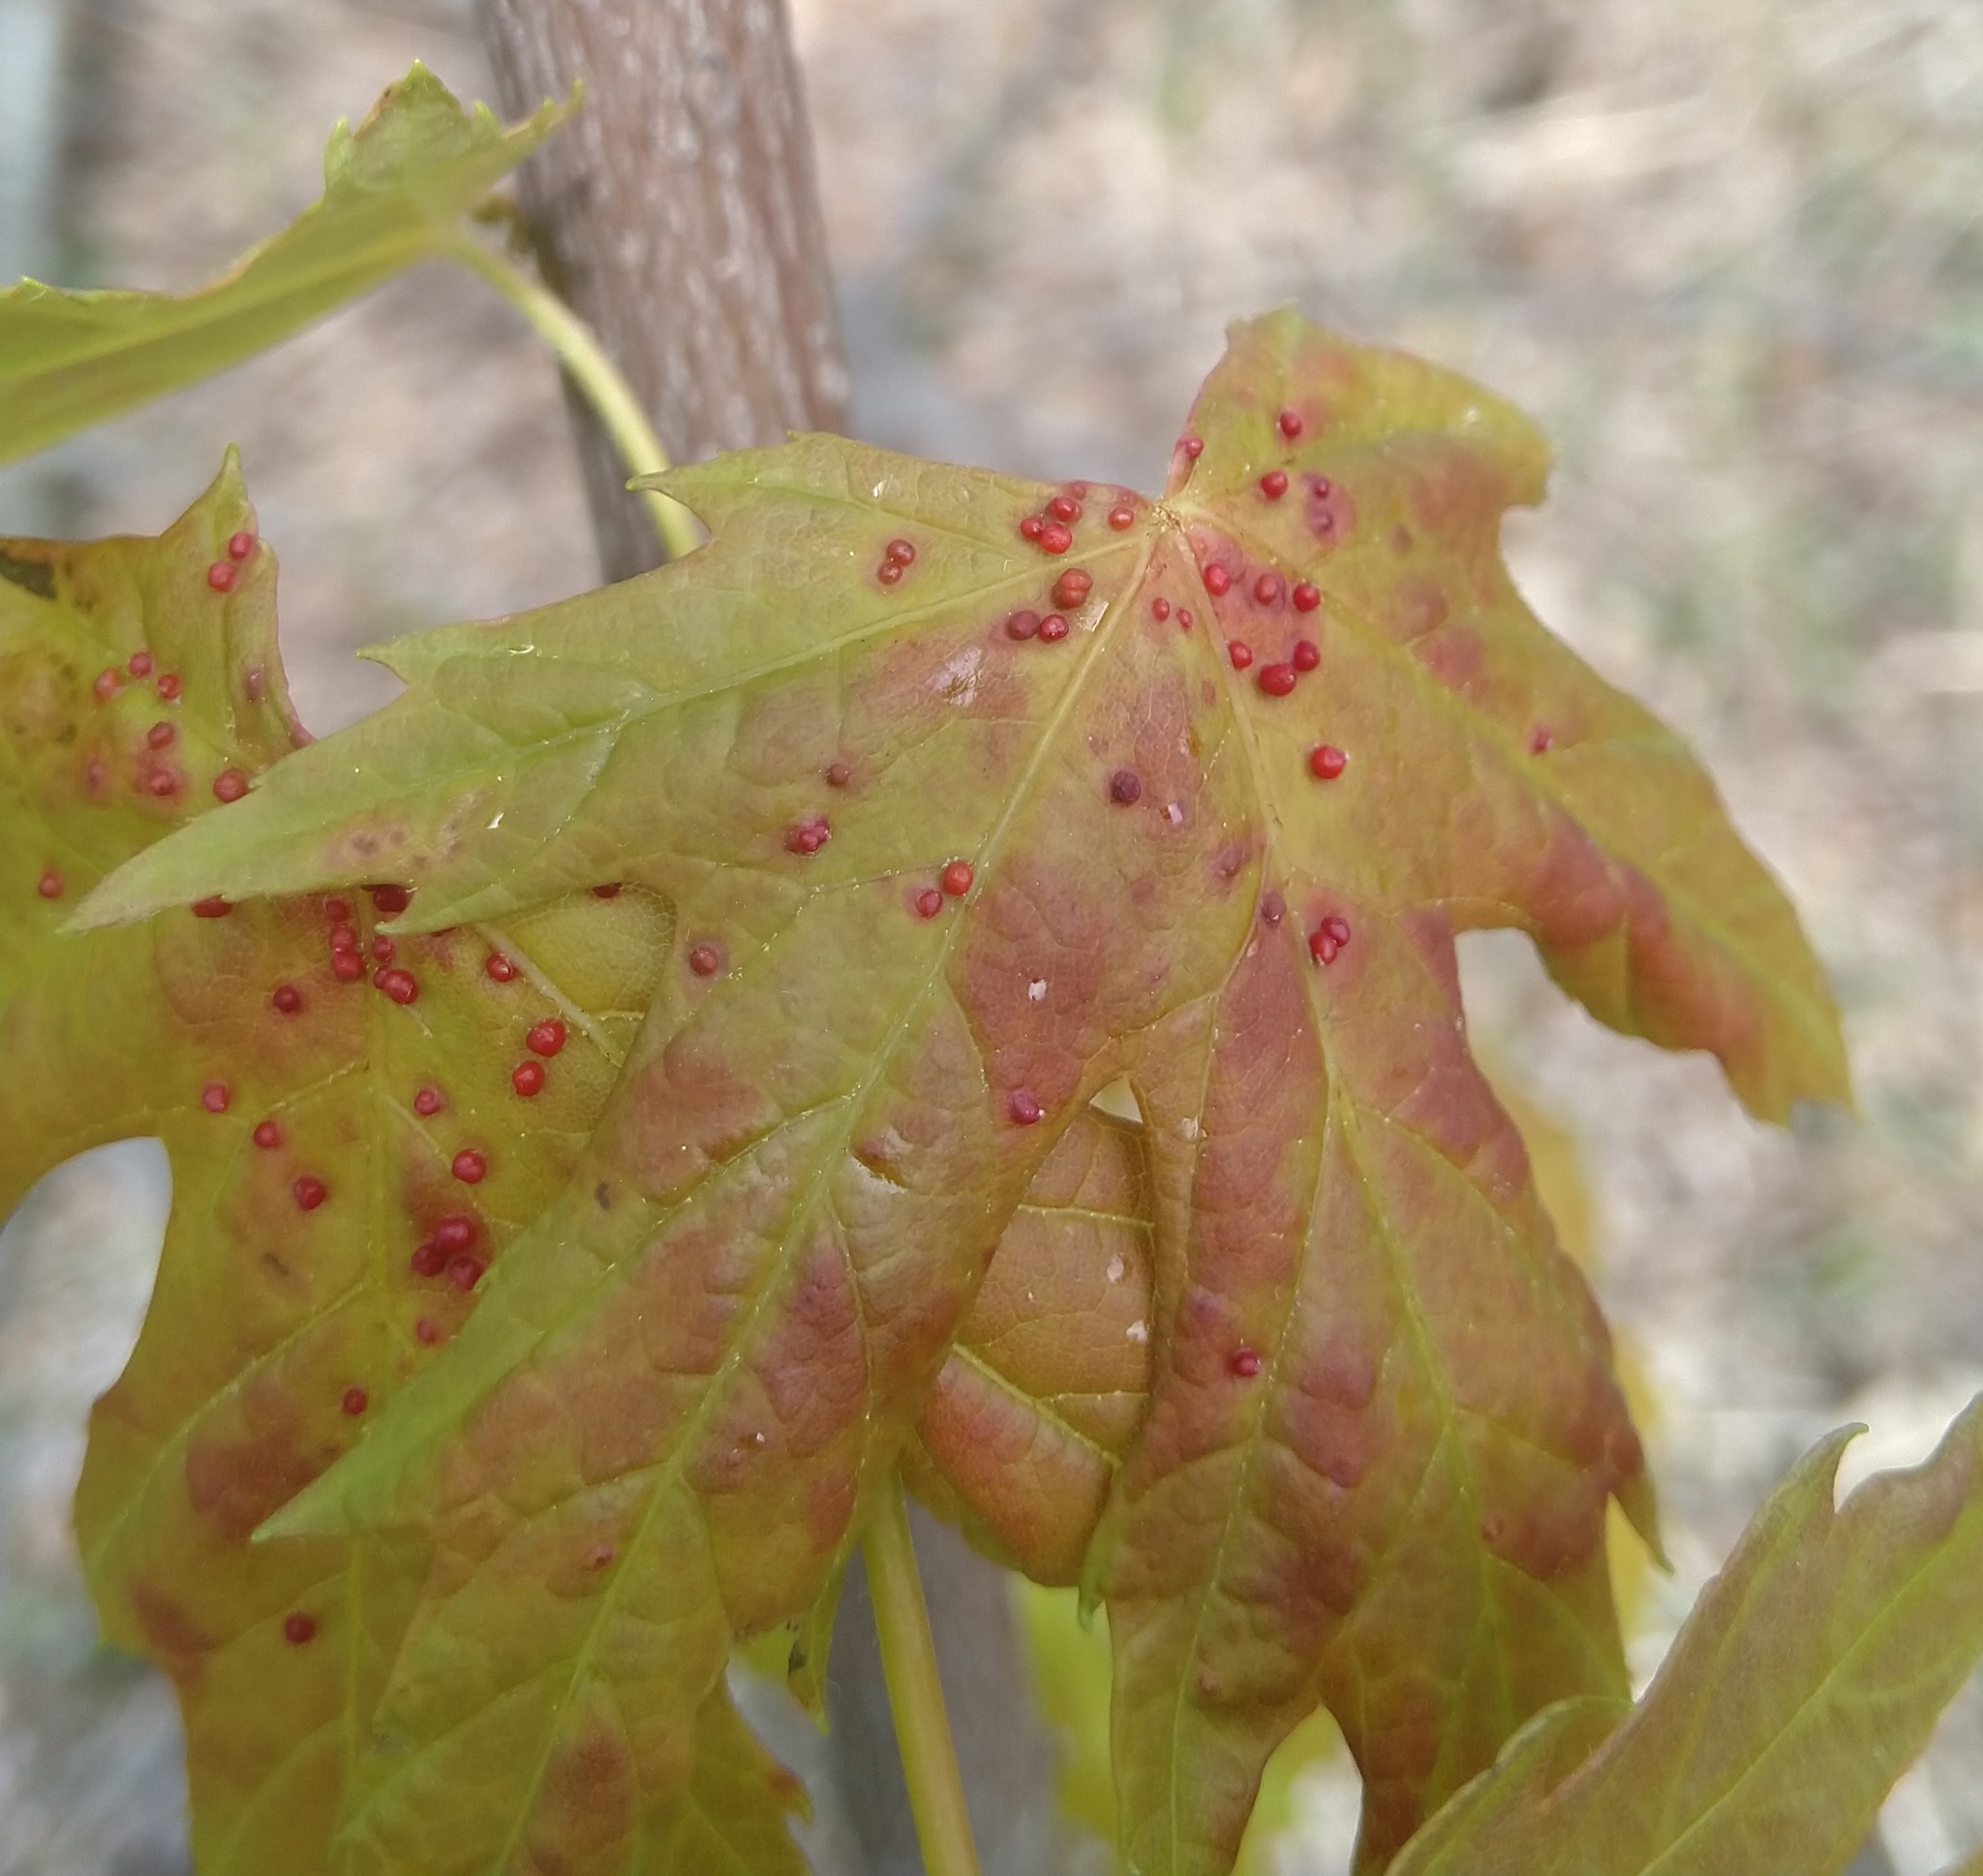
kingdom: Animalia
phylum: Arthropoda
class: Arachnida
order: Trombidiformes
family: Eriophyidae
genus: Vasates
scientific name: Vasates quadripedes
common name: Maple bladder gall mite
